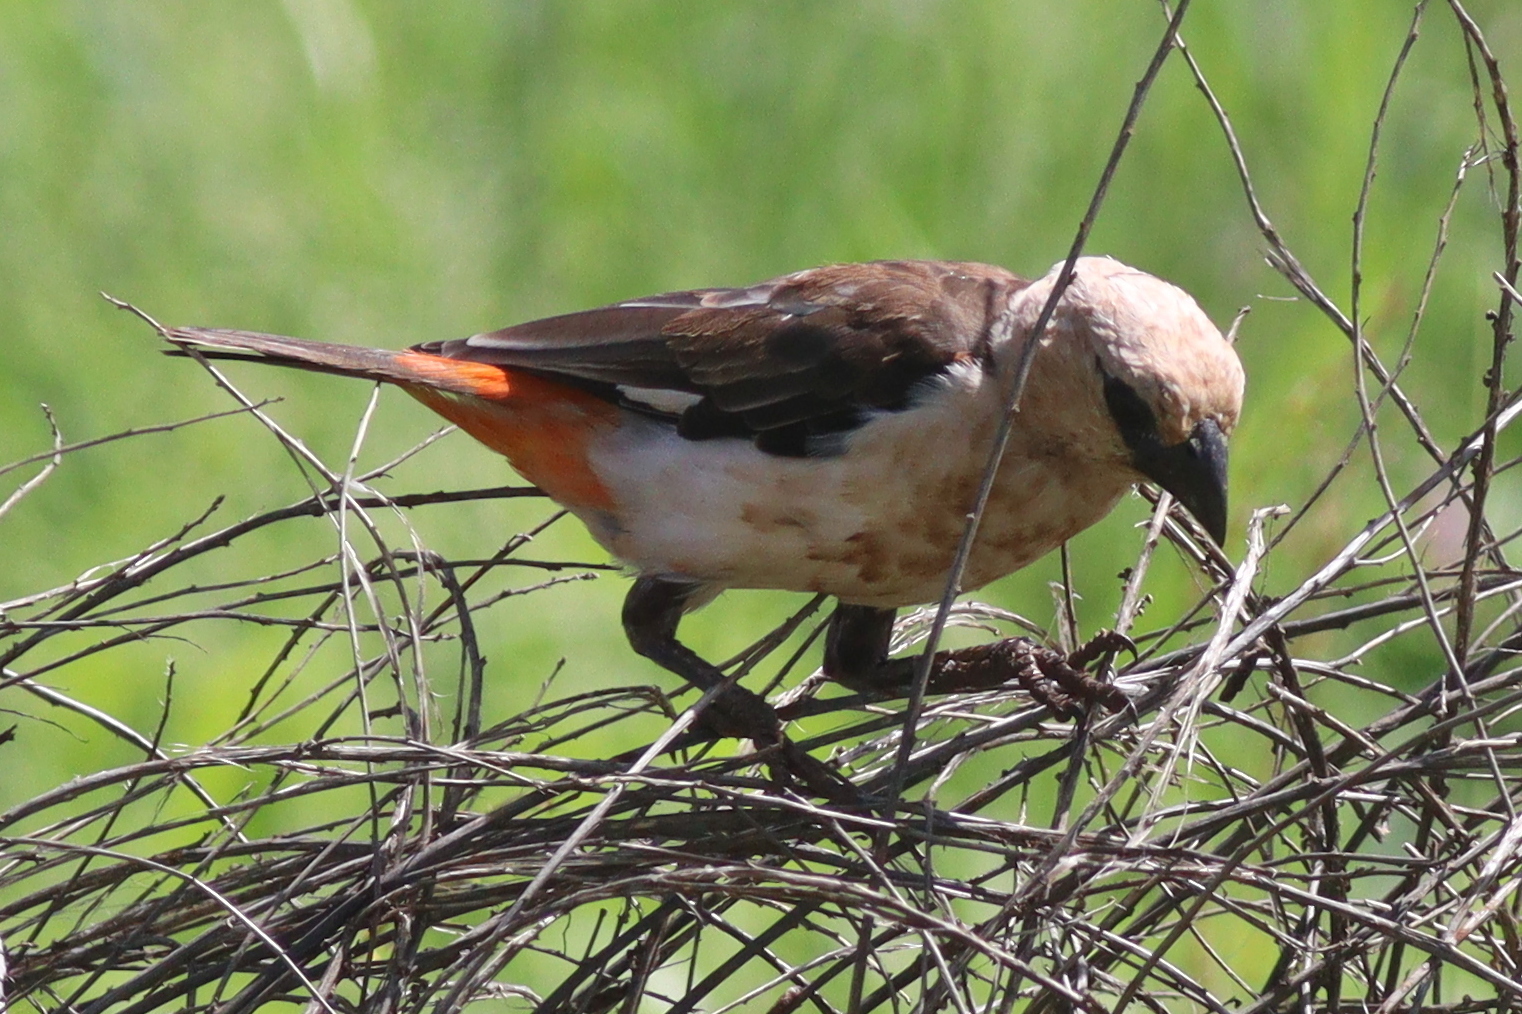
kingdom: Animalia
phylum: Chordata
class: Aves
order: Passeriformes
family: Ploceidae
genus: Dinemellia
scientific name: Dinemellia dinemelli
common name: White-headed buffalo weaver
